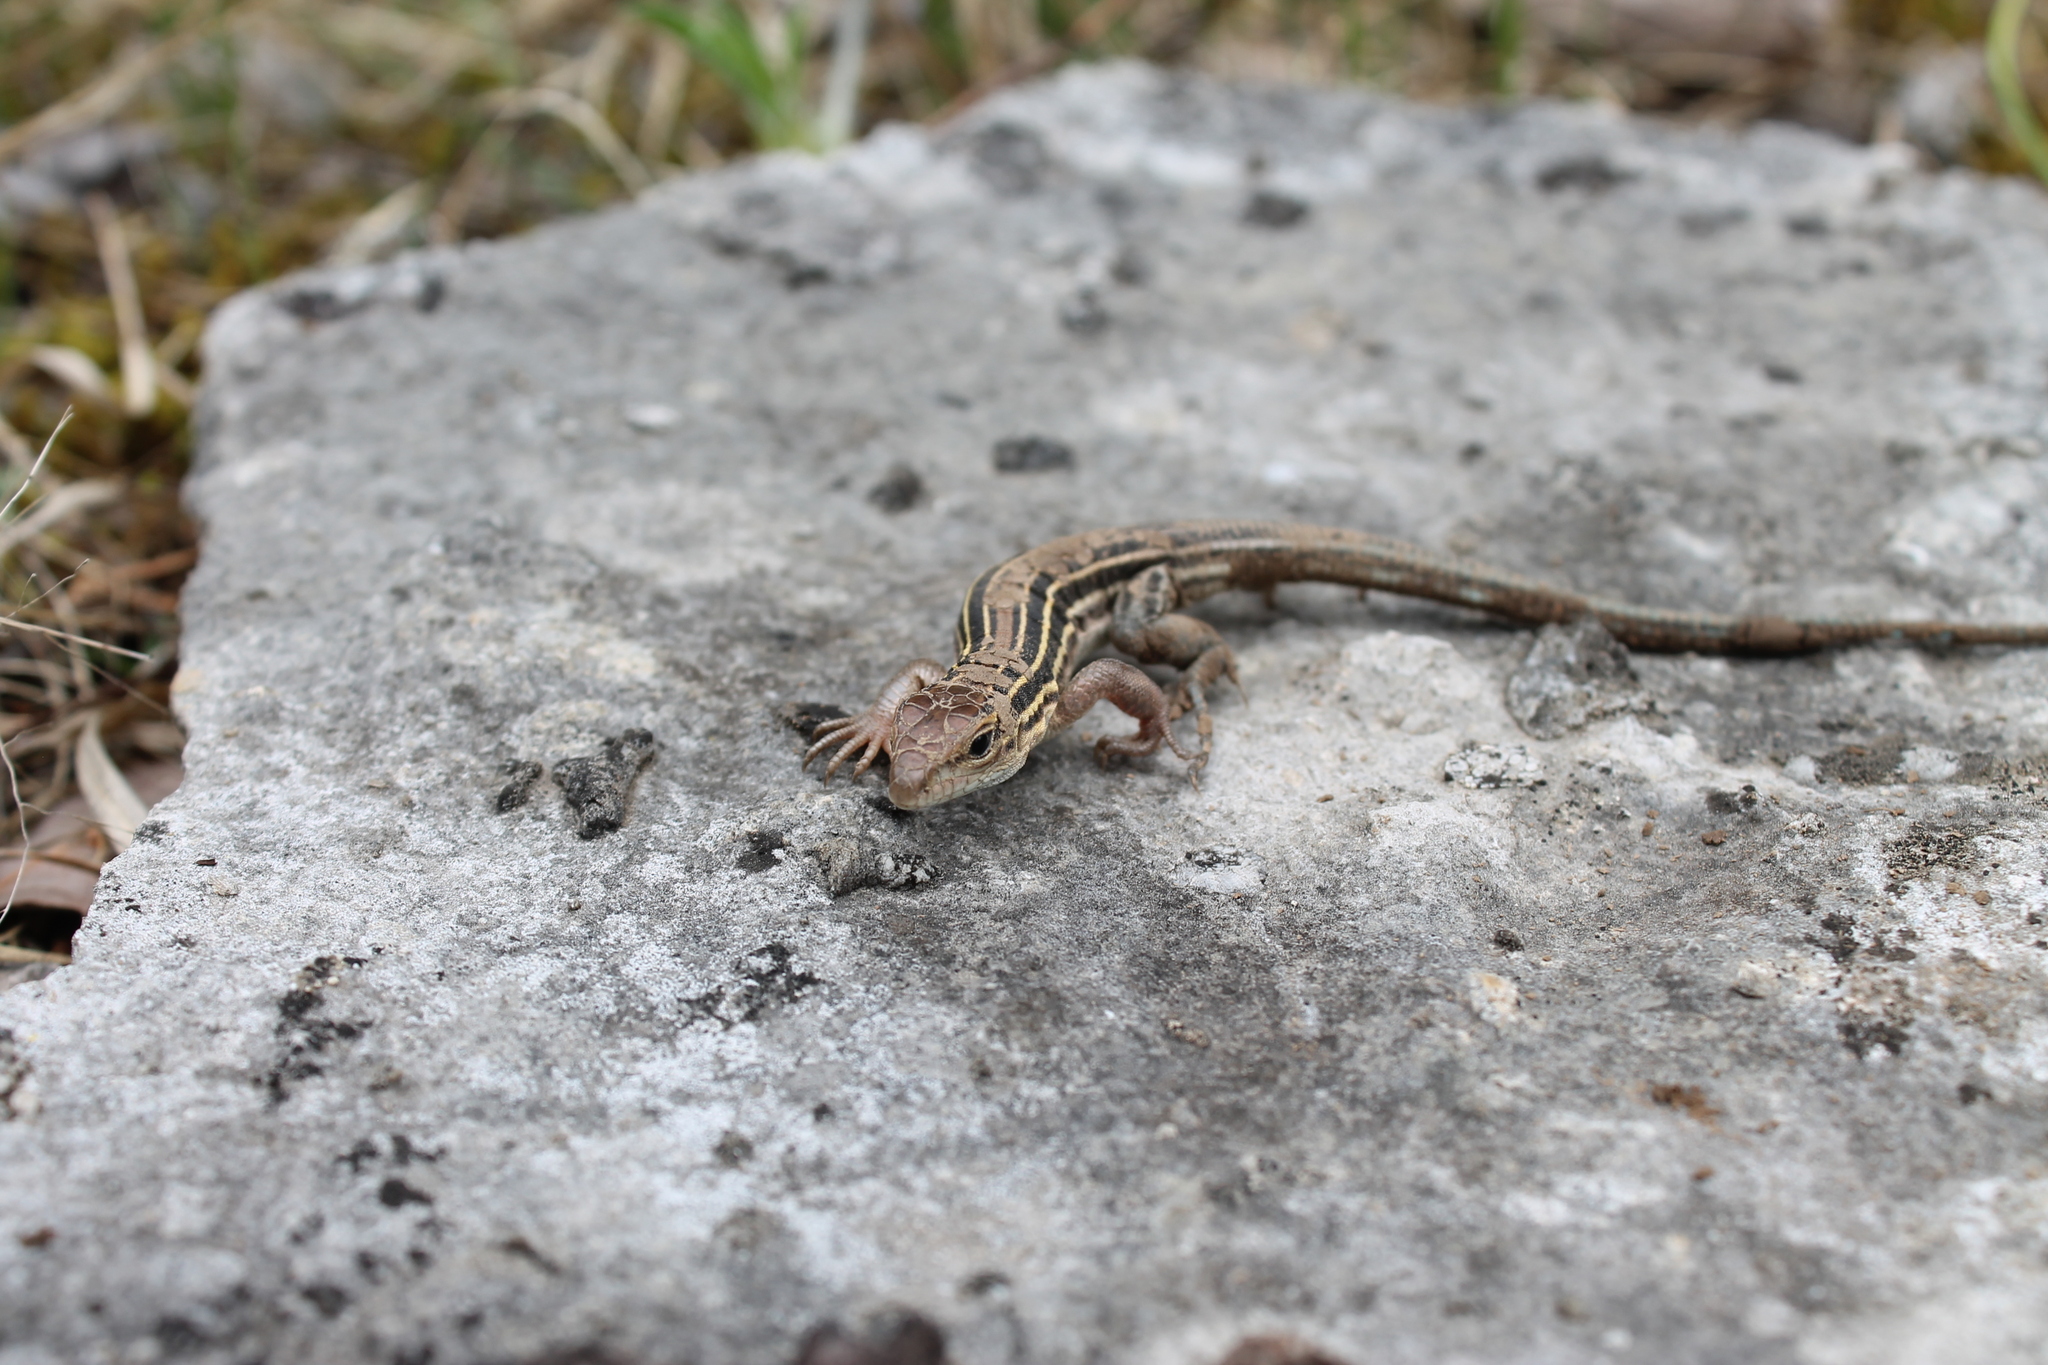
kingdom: Animalia
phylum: Chordata
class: Squamata
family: Teiidae
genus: Aspidoscelis
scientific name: Aspidoscelis sexlineatus
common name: Six-lined racerunner
